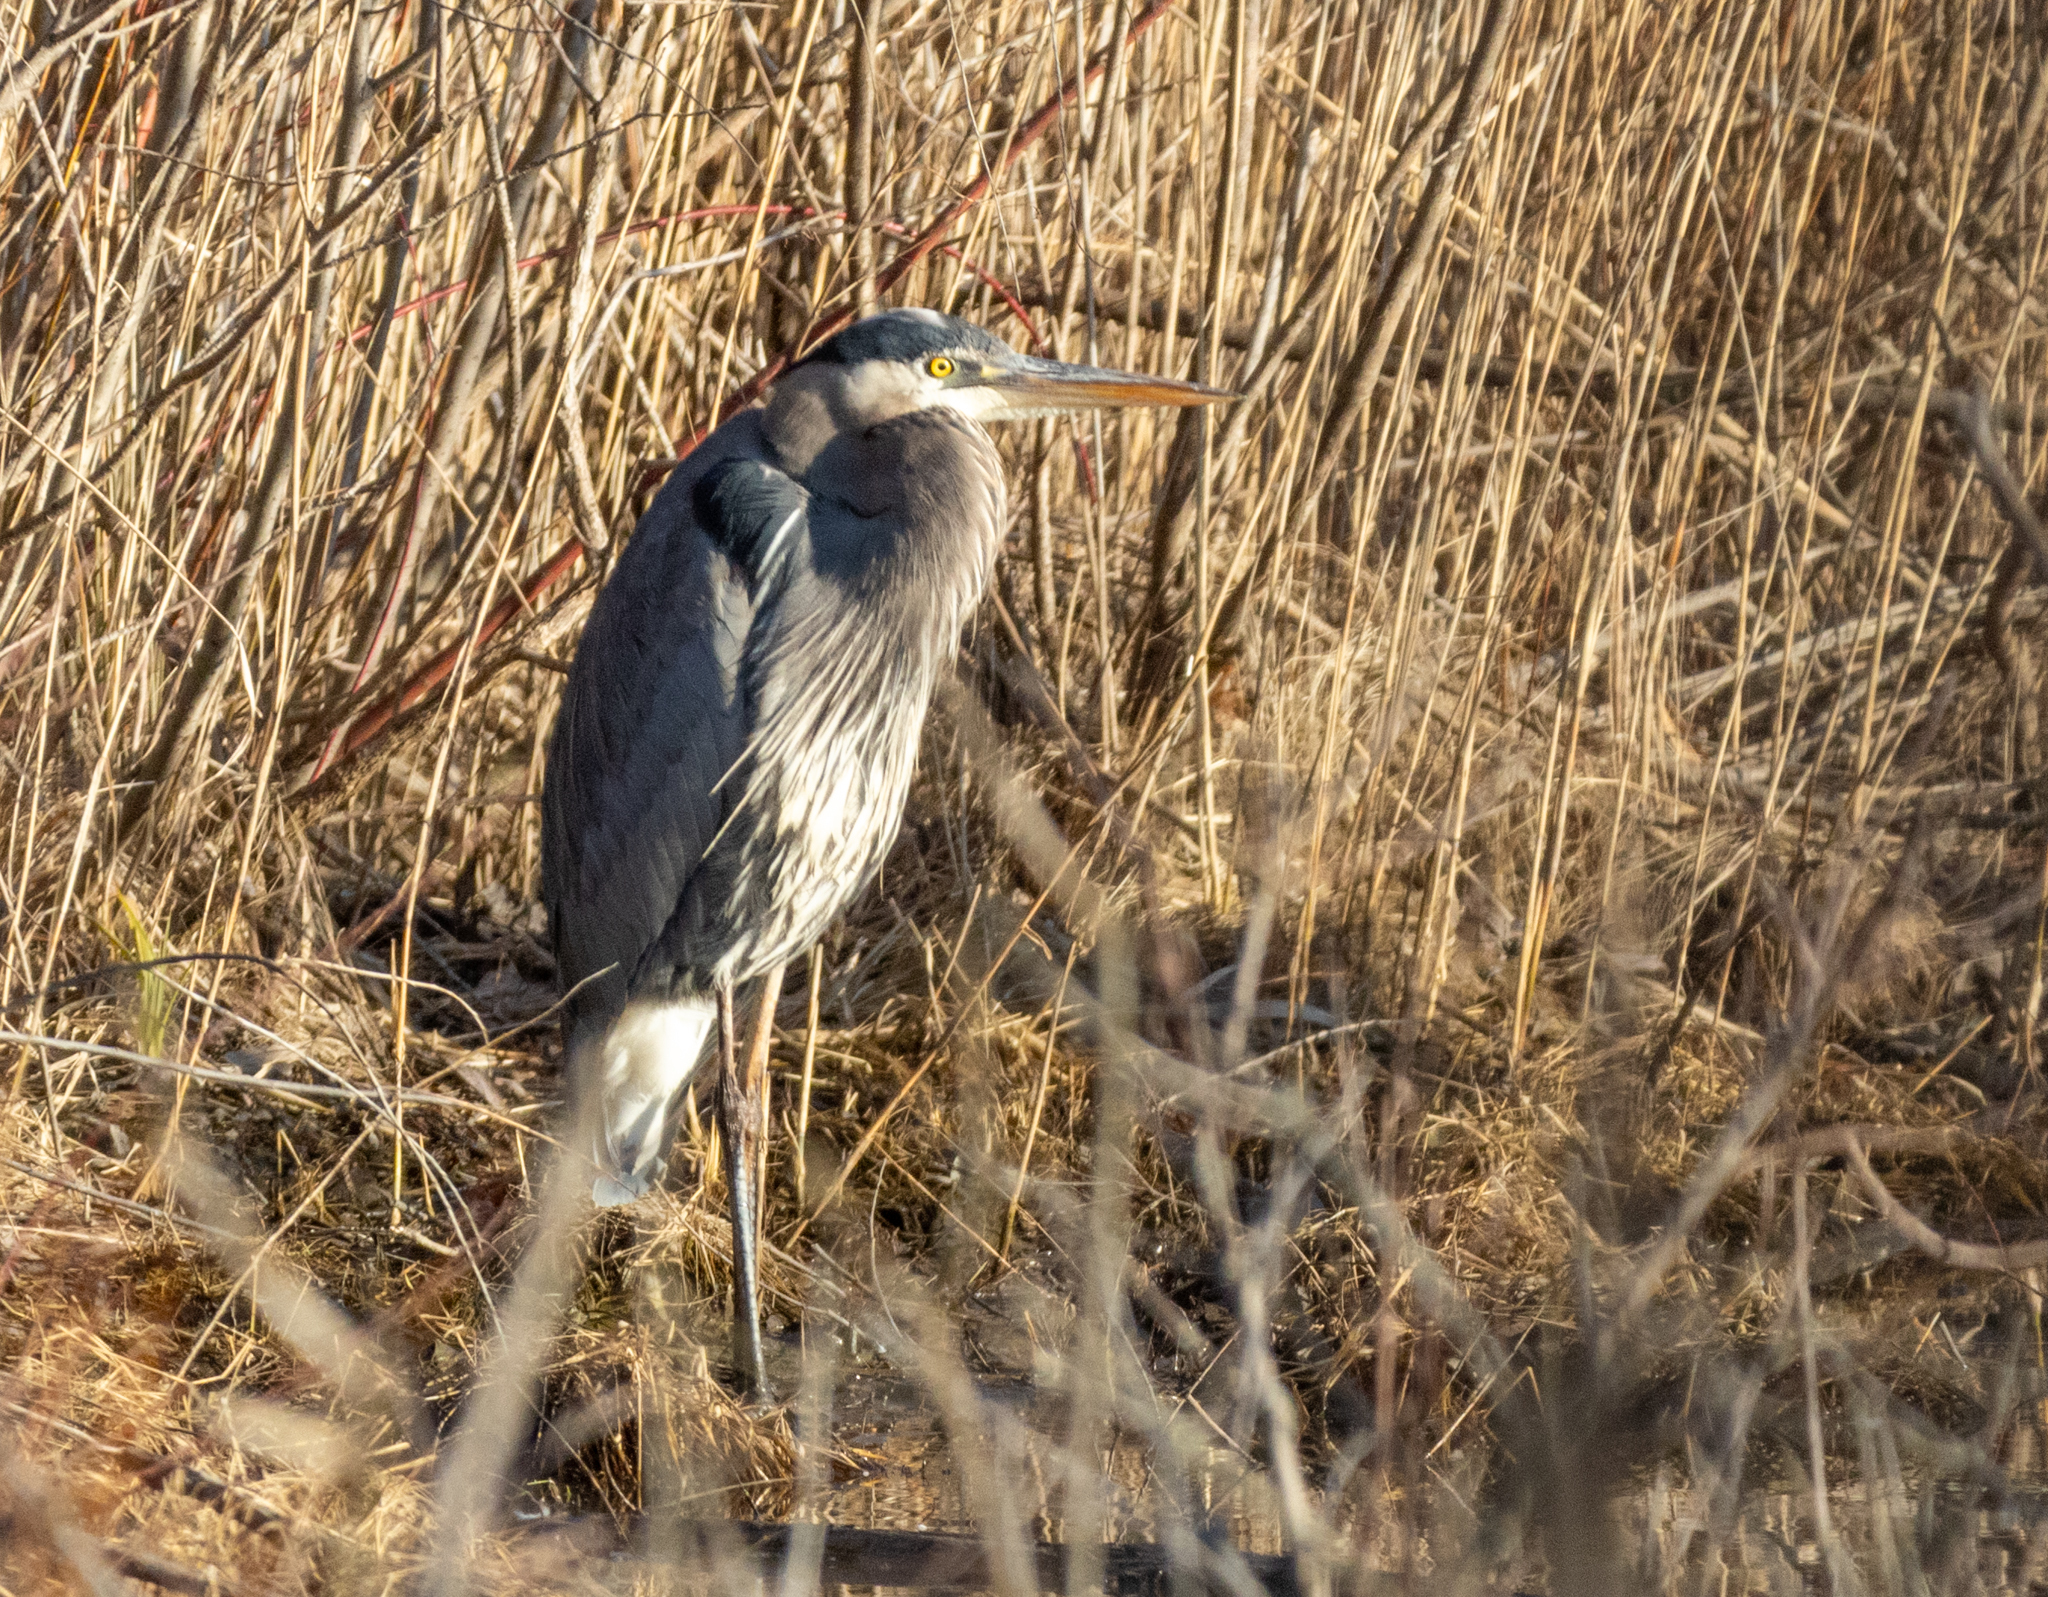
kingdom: Animalia
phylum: Chordata
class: Aves
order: Pelecaniformes
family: Ardeidae
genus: Ardea
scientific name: Ardea herodias
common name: Great blue heron
